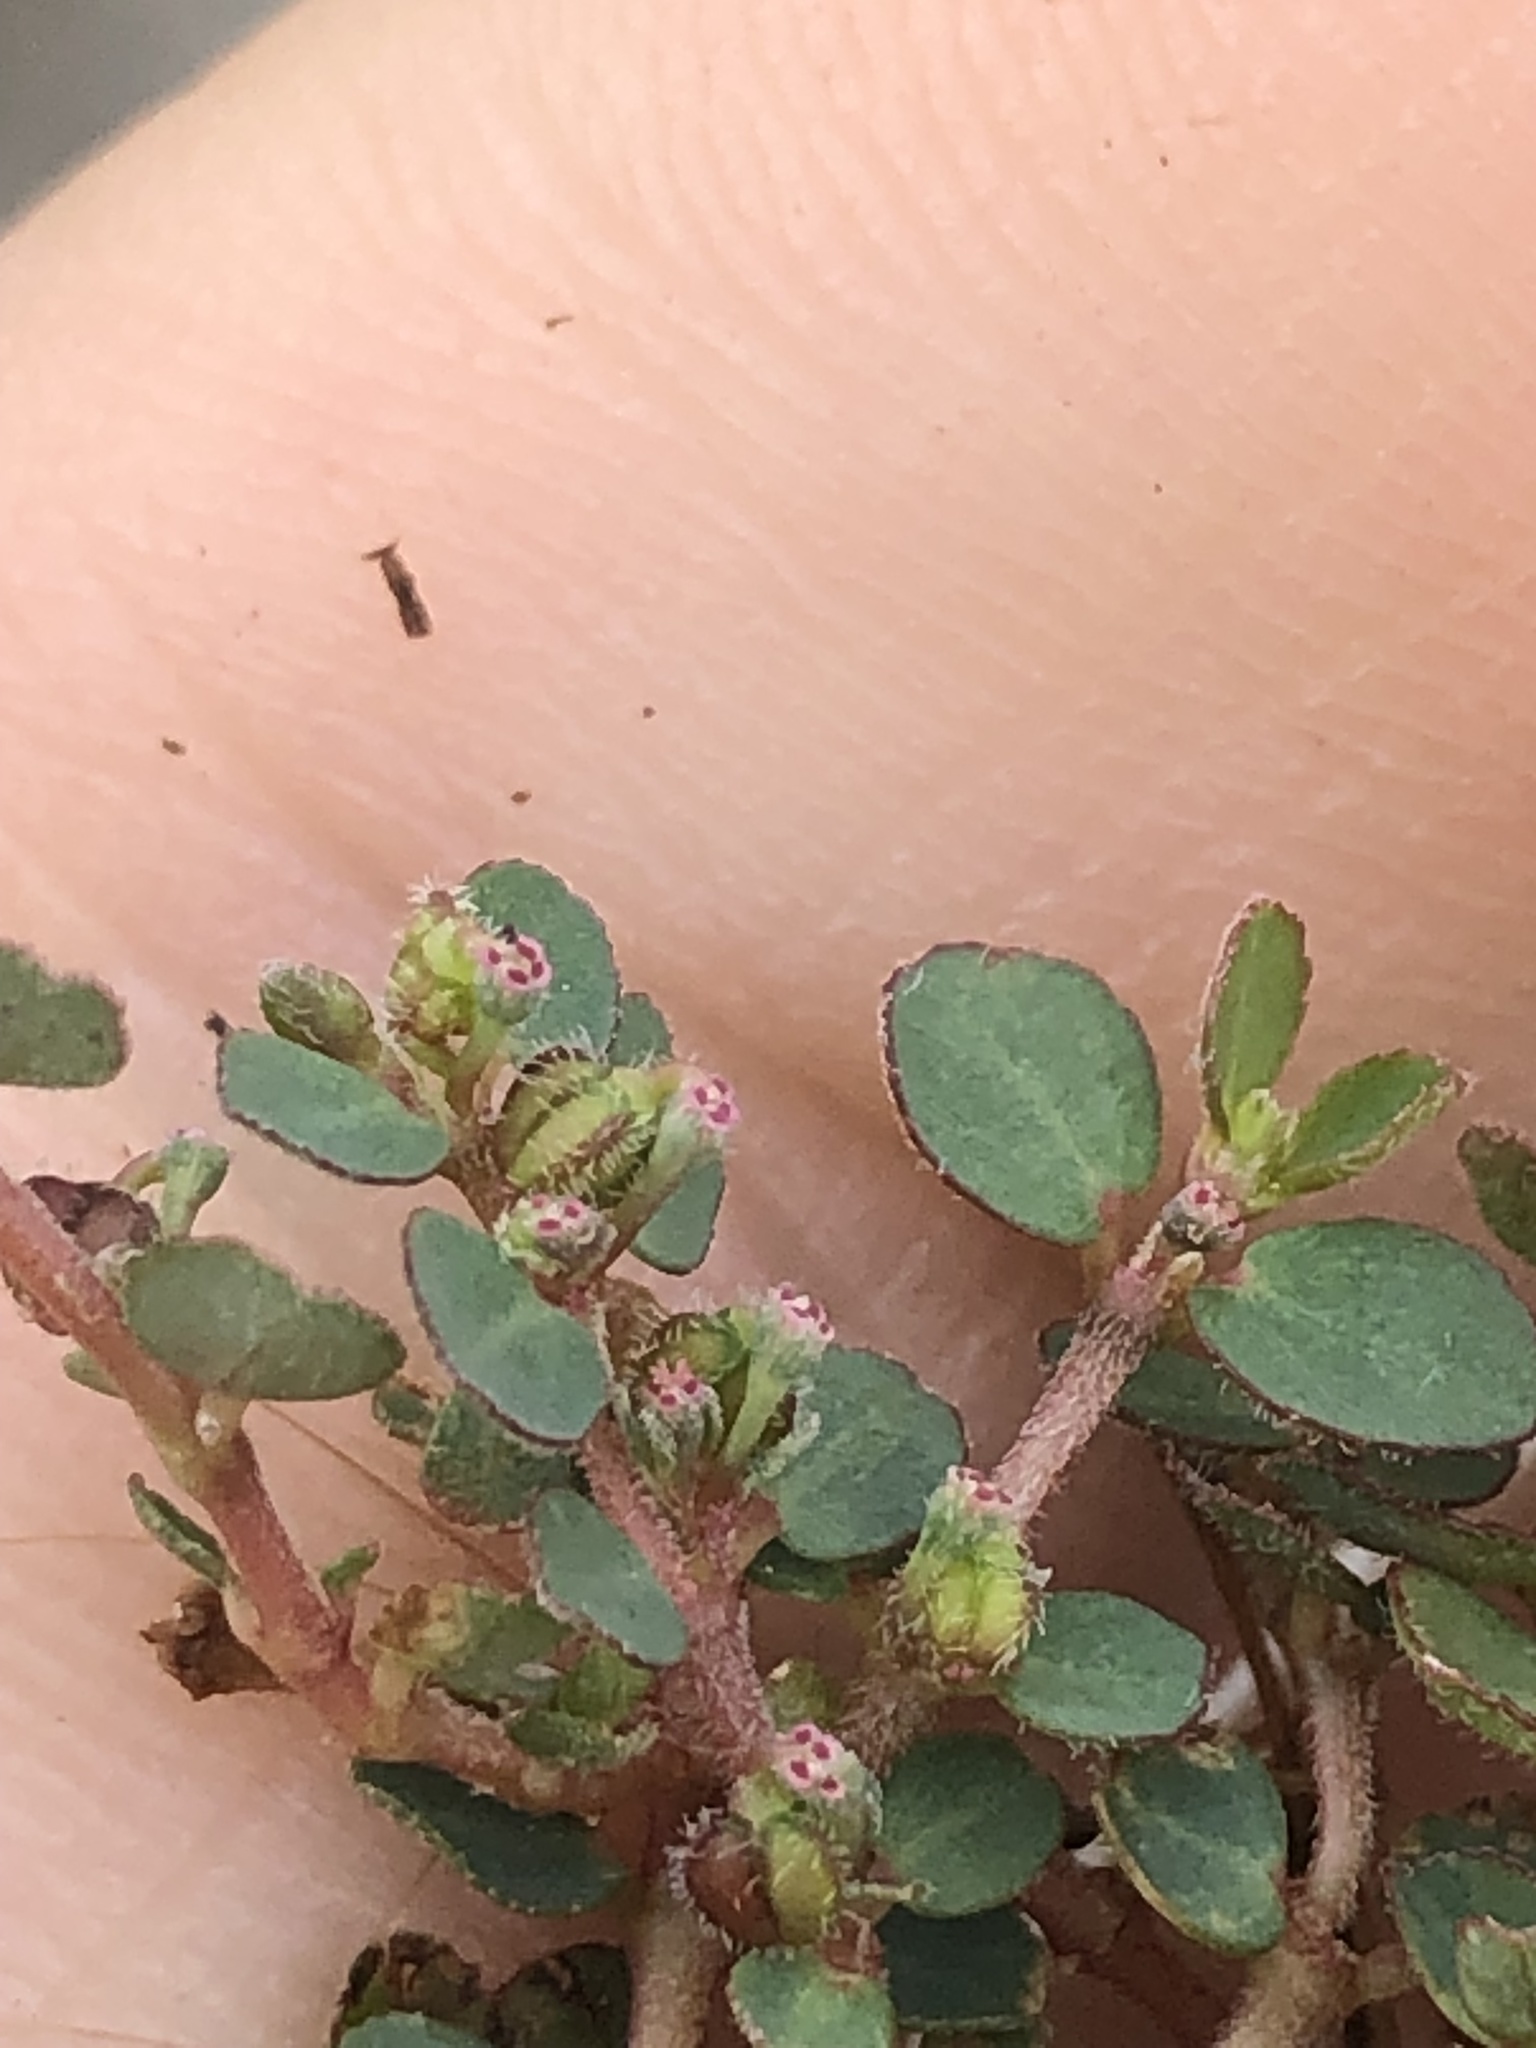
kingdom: Plantae
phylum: Tracheophyta
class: Magnoliopsida
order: Malpighiales
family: Euphorbiaceae
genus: Euphorbia
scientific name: Euphorbia prostrata
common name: Prostrate sandmat
